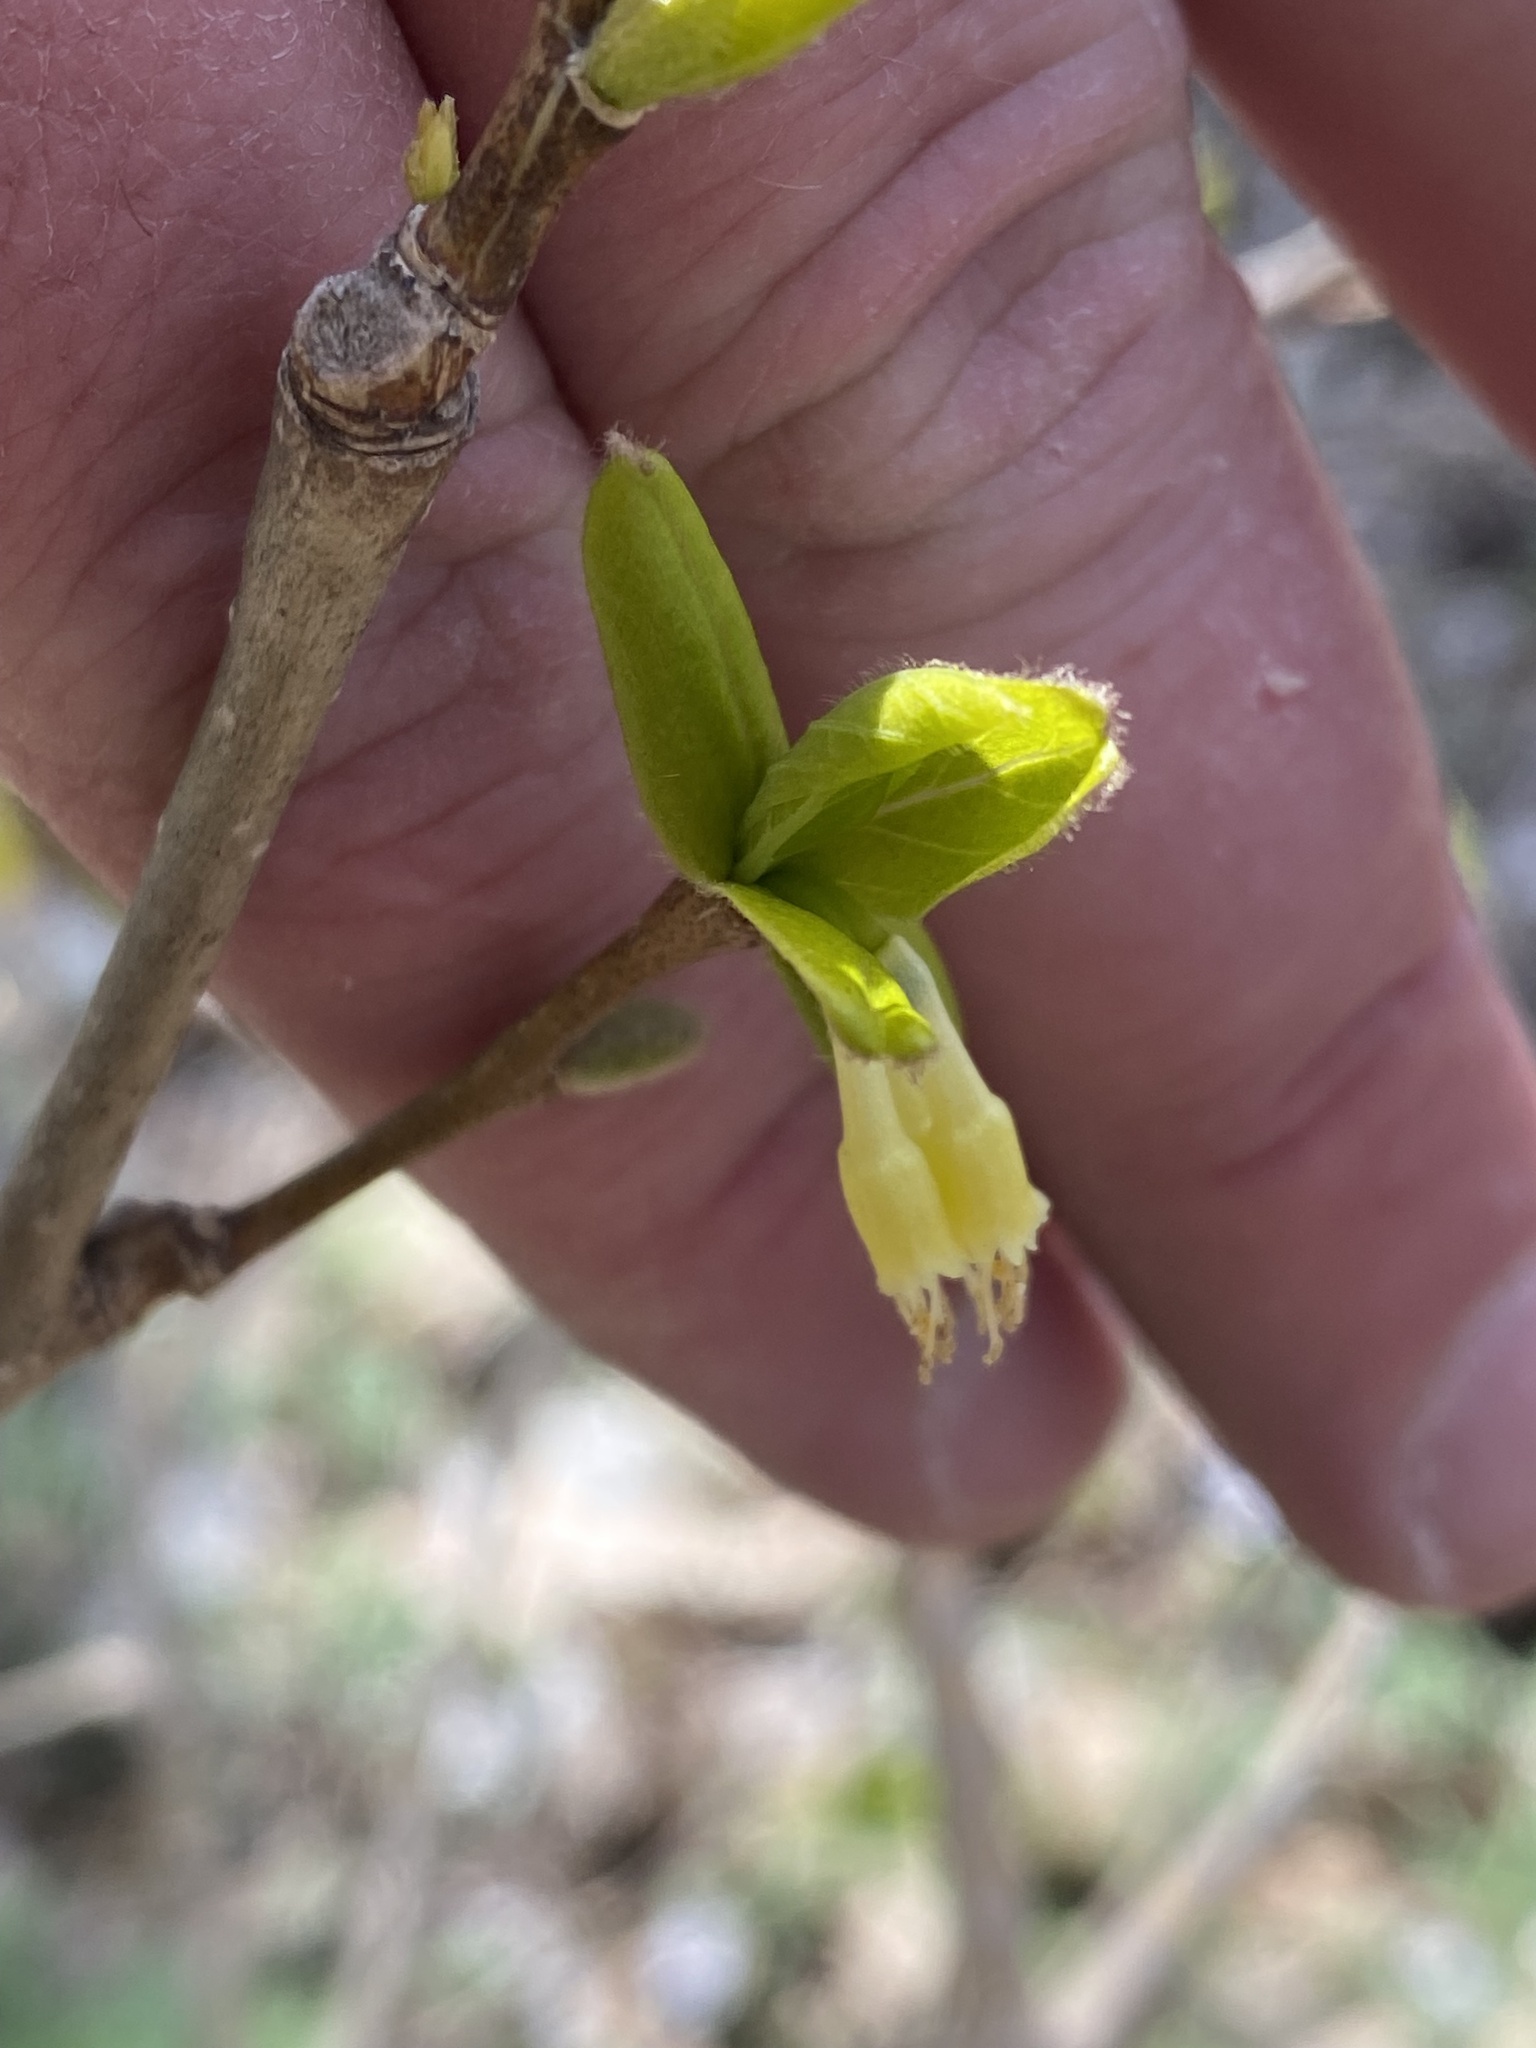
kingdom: Plantae
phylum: Tracheophyta
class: Magnoliopsida
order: Malvales
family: Thymelaeaceae
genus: Dirca
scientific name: Dirca palustris
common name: Leatherwood
